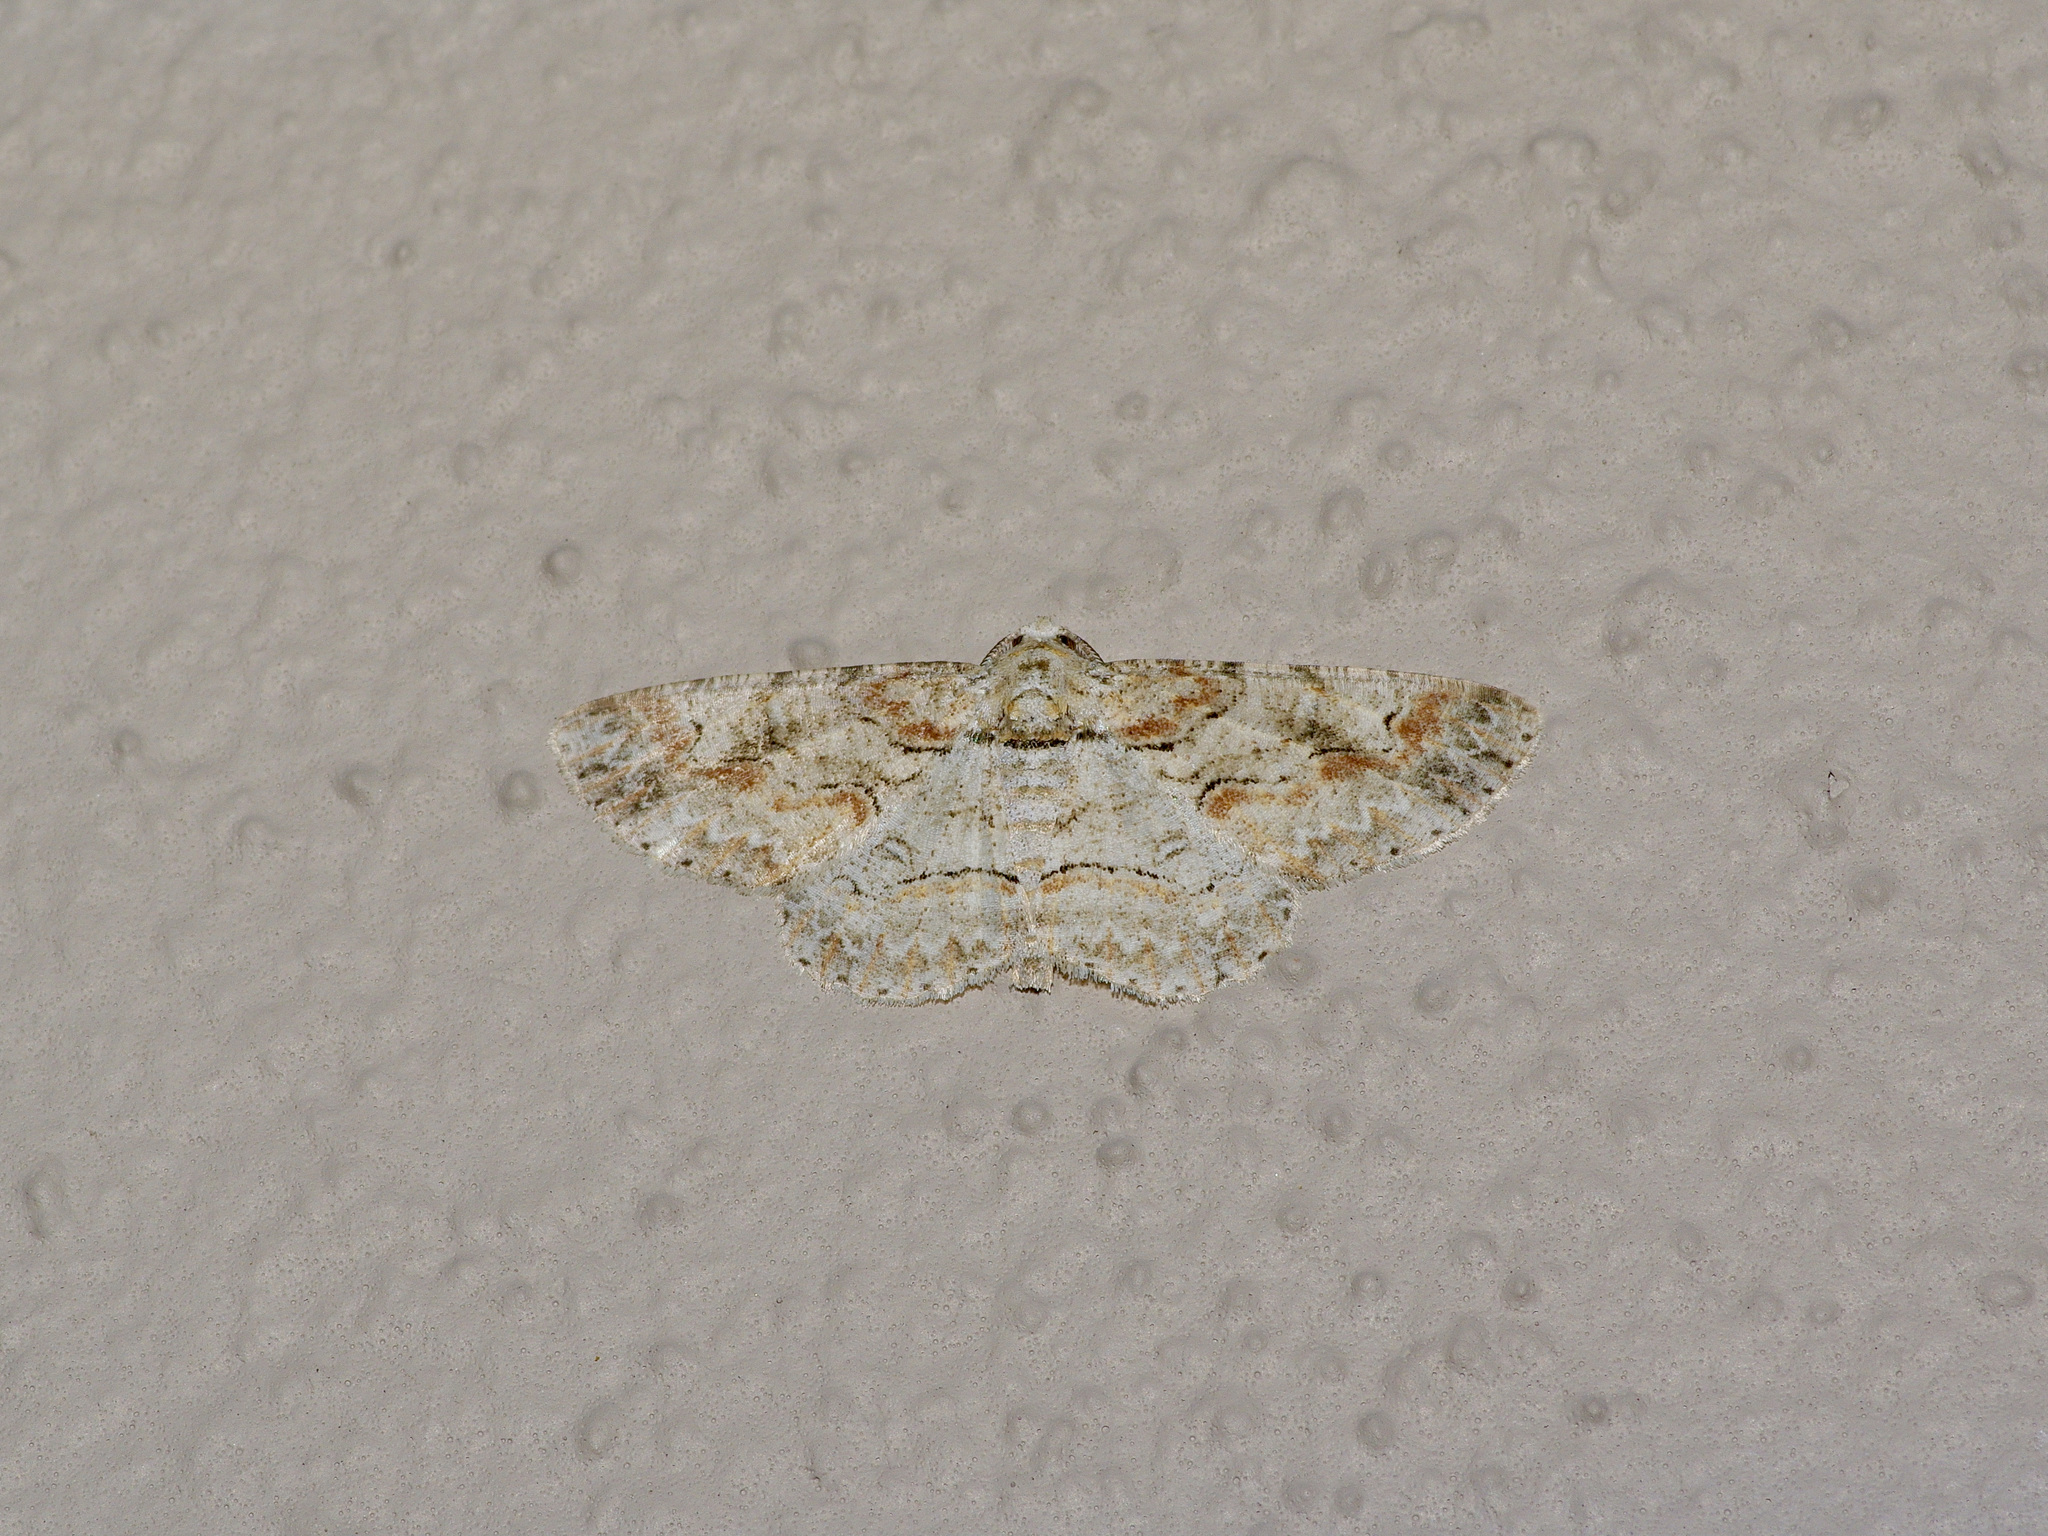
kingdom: Animalia
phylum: Arthropoda
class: Insecta
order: Lepidoptera
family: Geometridae
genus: Iridopsis
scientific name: Iridopsis defectaria
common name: Brown-shaded gray
